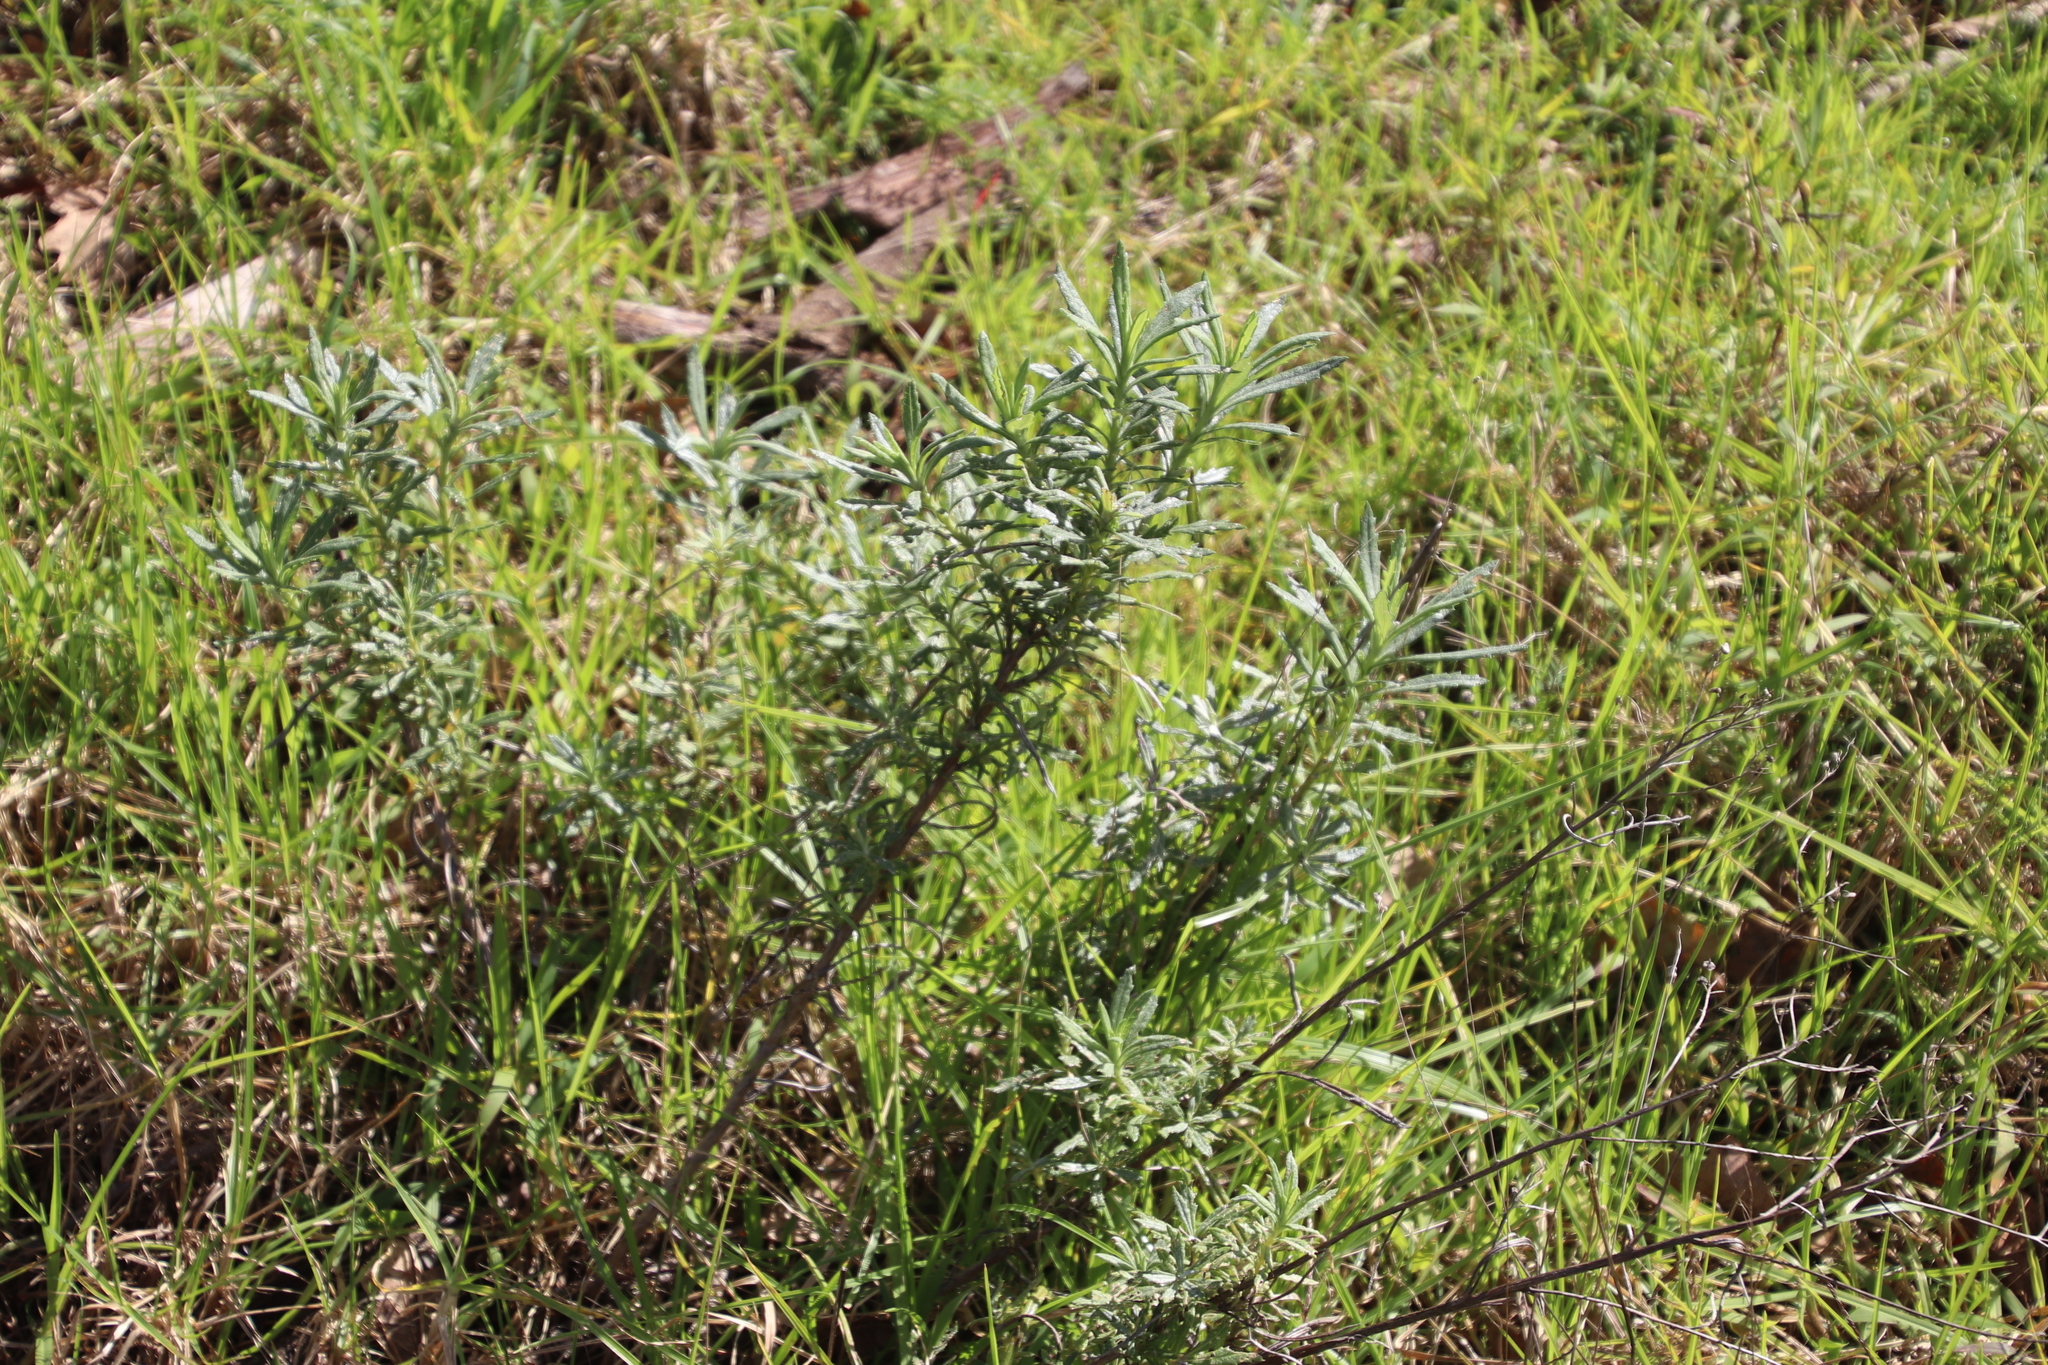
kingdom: Plantae
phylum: Tracheophyta
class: Magnoliopsida
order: Asterales
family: Asteraceae
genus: Senecio
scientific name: Senecio pterophorus
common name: Shoddy ragwort
